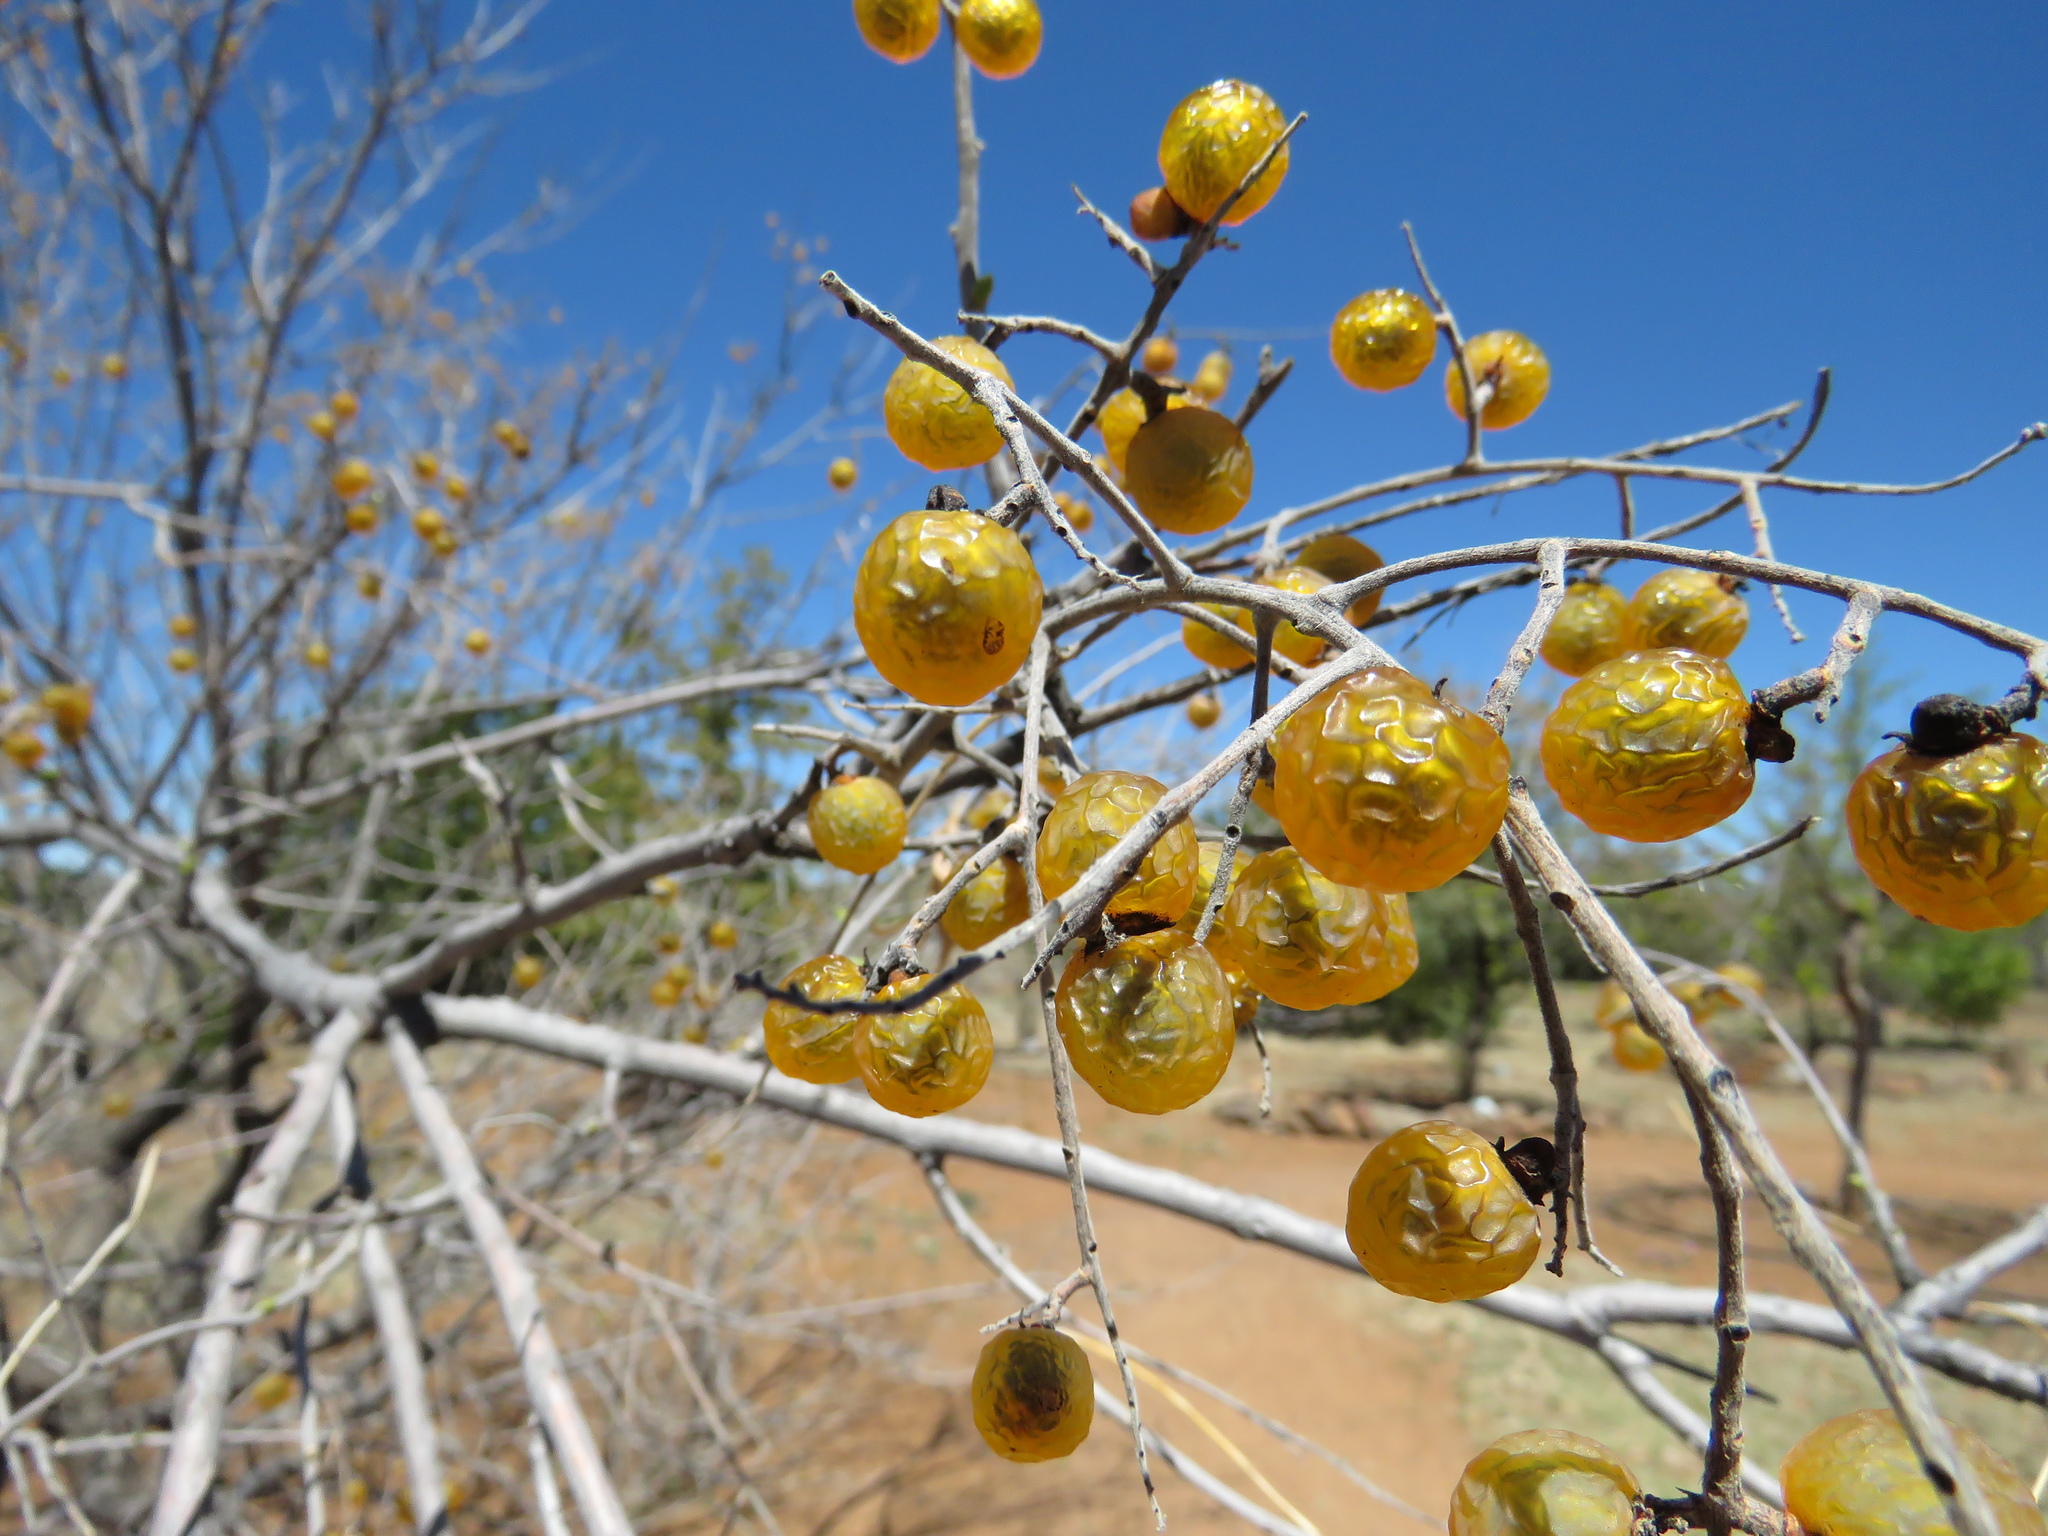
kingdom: Plantae
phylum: Tracheophyta
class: Magnoliopsida
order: Sapindales
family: Sapindaceae
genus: Sapindus
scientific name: Sapindus drummondii
